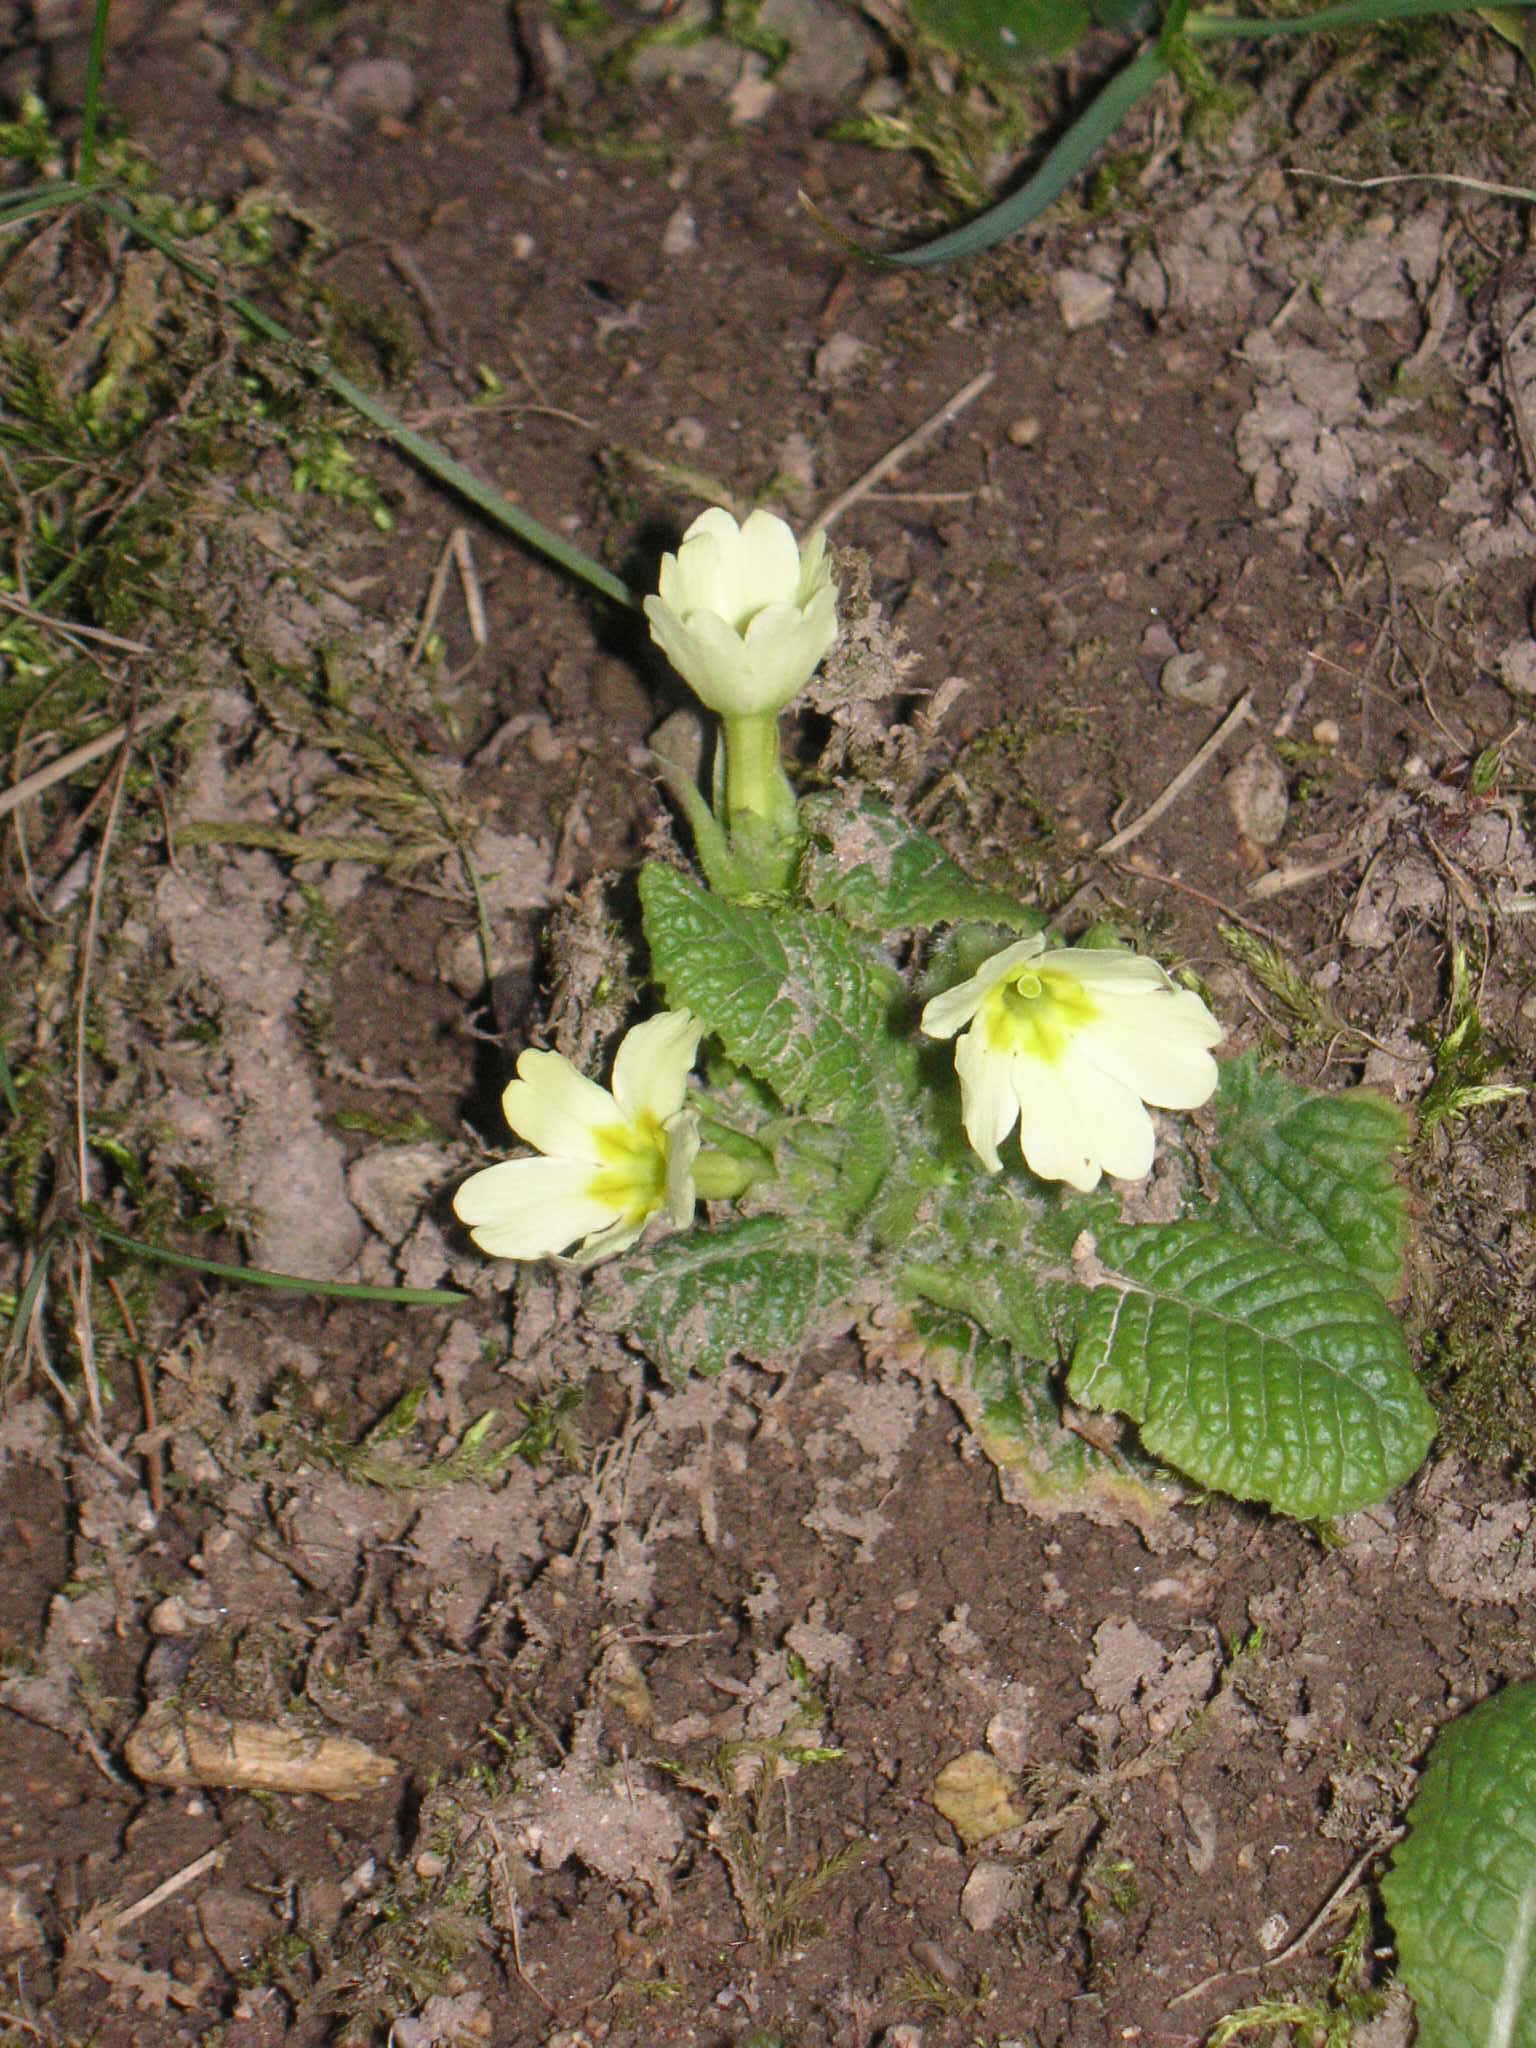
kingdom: Plantae
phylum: Tracheophyta
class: Magnoliopsida
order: Ericales
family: Primulaceae
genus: Primula
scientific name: Primula vulgaris
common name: Primrose
